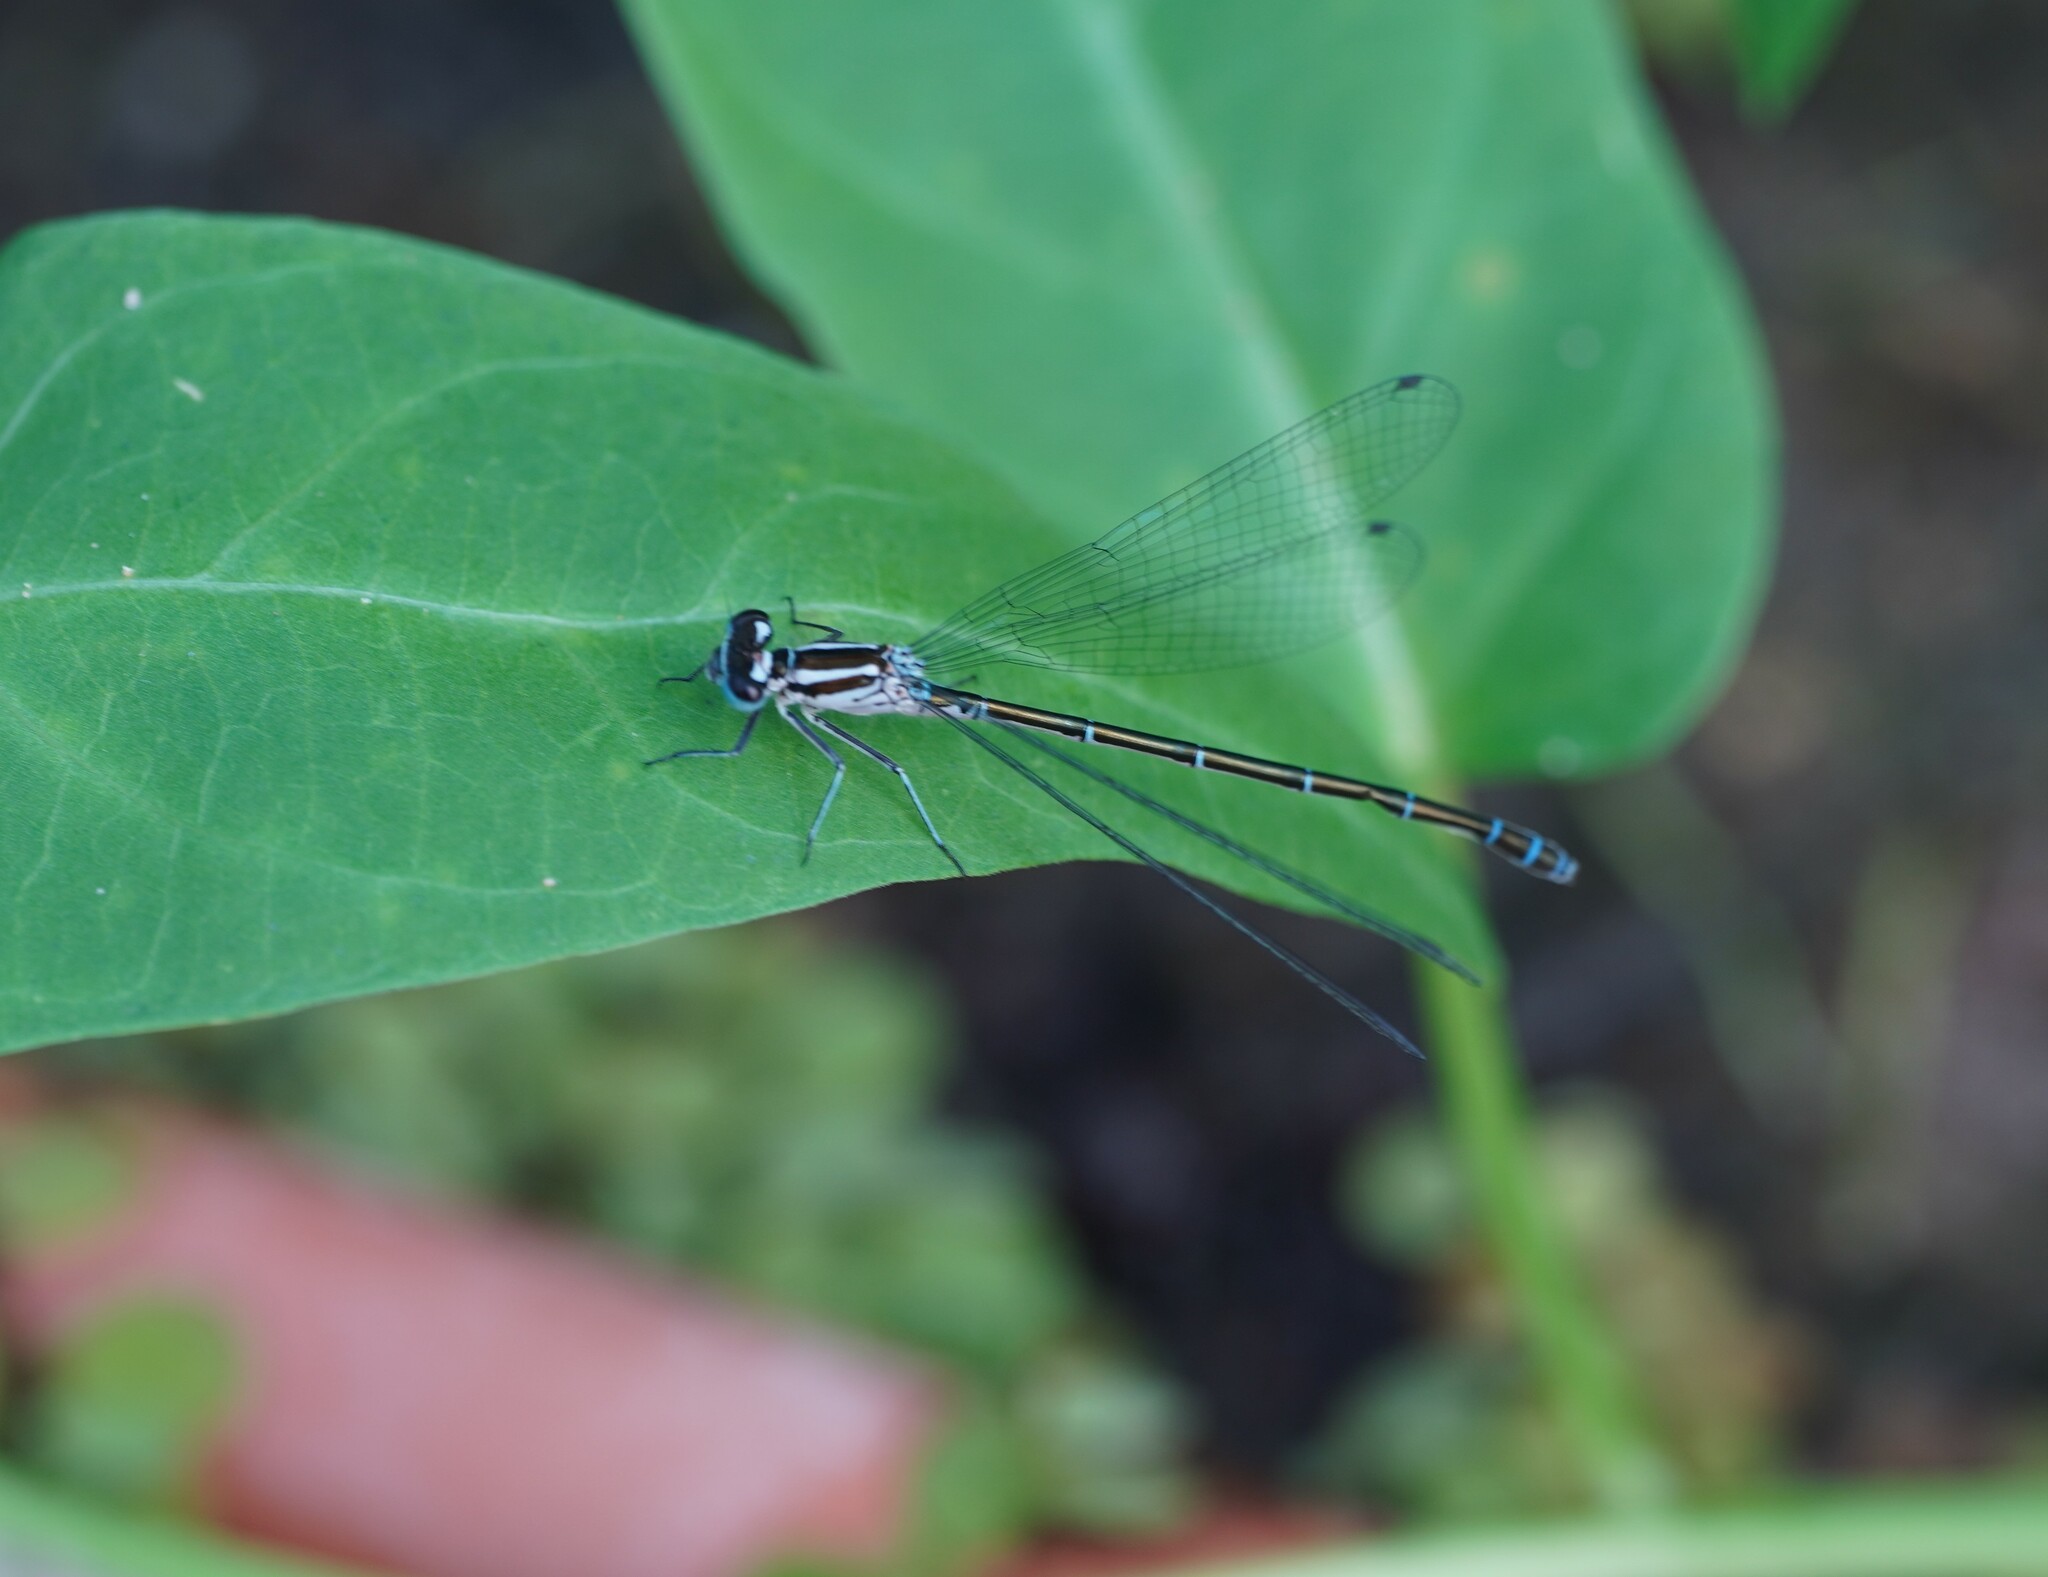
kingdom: Animalia
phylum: Arthropoda
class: Insecta
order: Odonata
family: Coenagrionidae
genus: Coenagrion
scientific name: Coenagrion puella
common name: Azure damselfly
